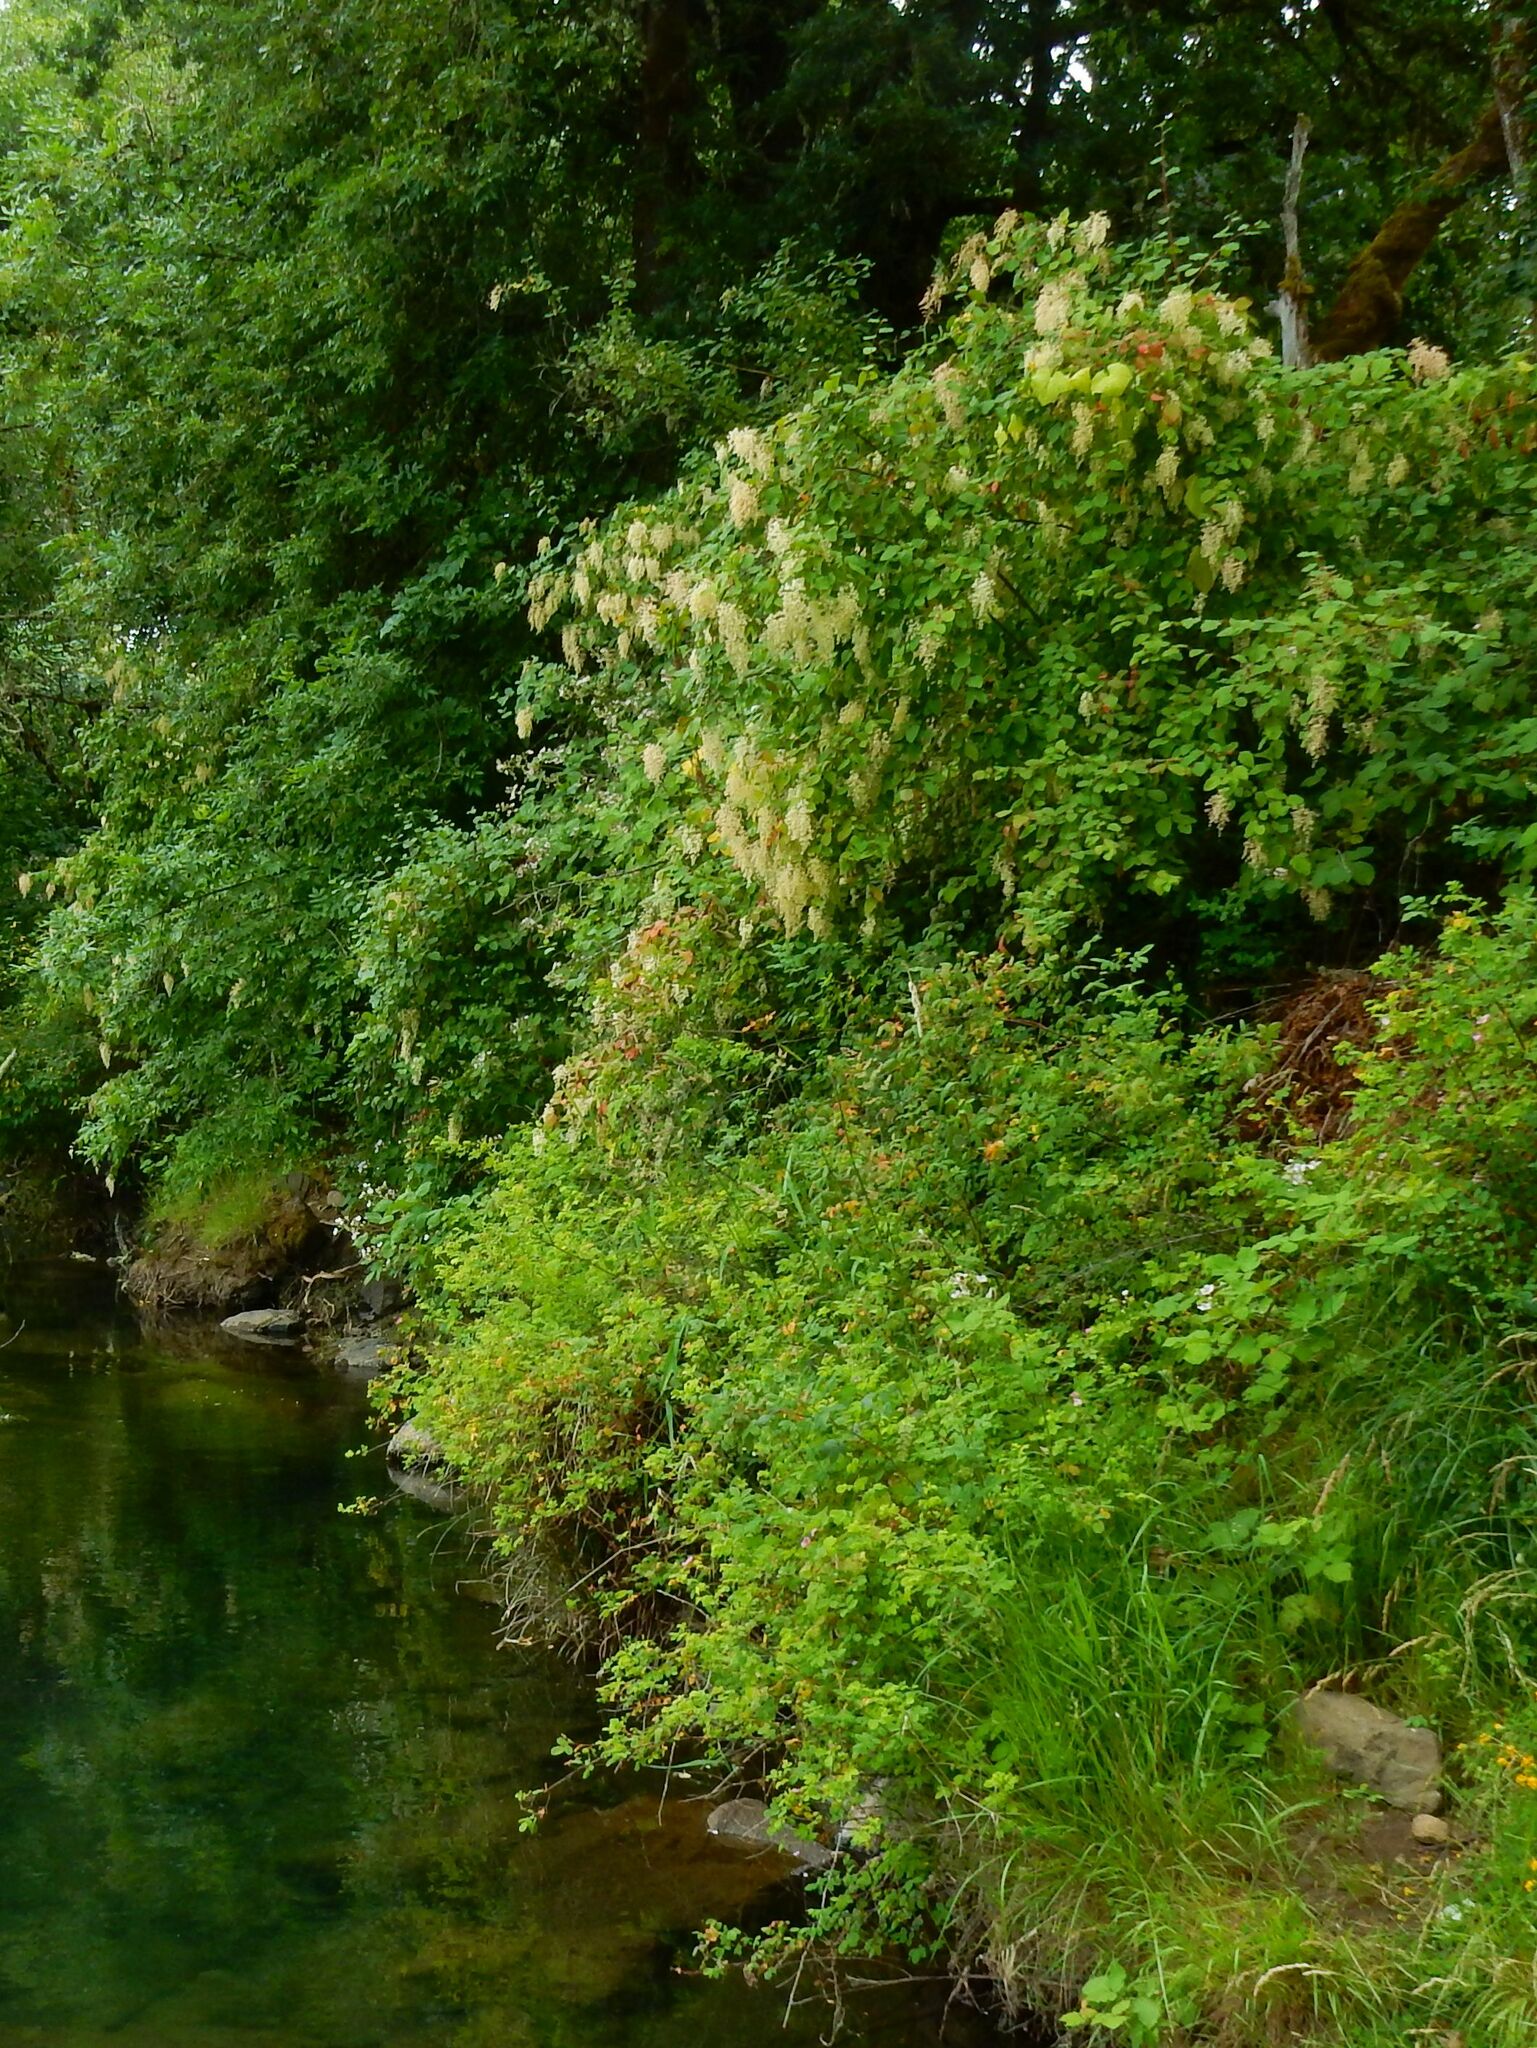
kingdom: Plantae
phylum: Tracheophyta
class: Magnoliopsida
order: Rosales
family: Rosaceae
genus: Holodiscus
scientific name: Holodiscus discolor
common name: Oceanspray
